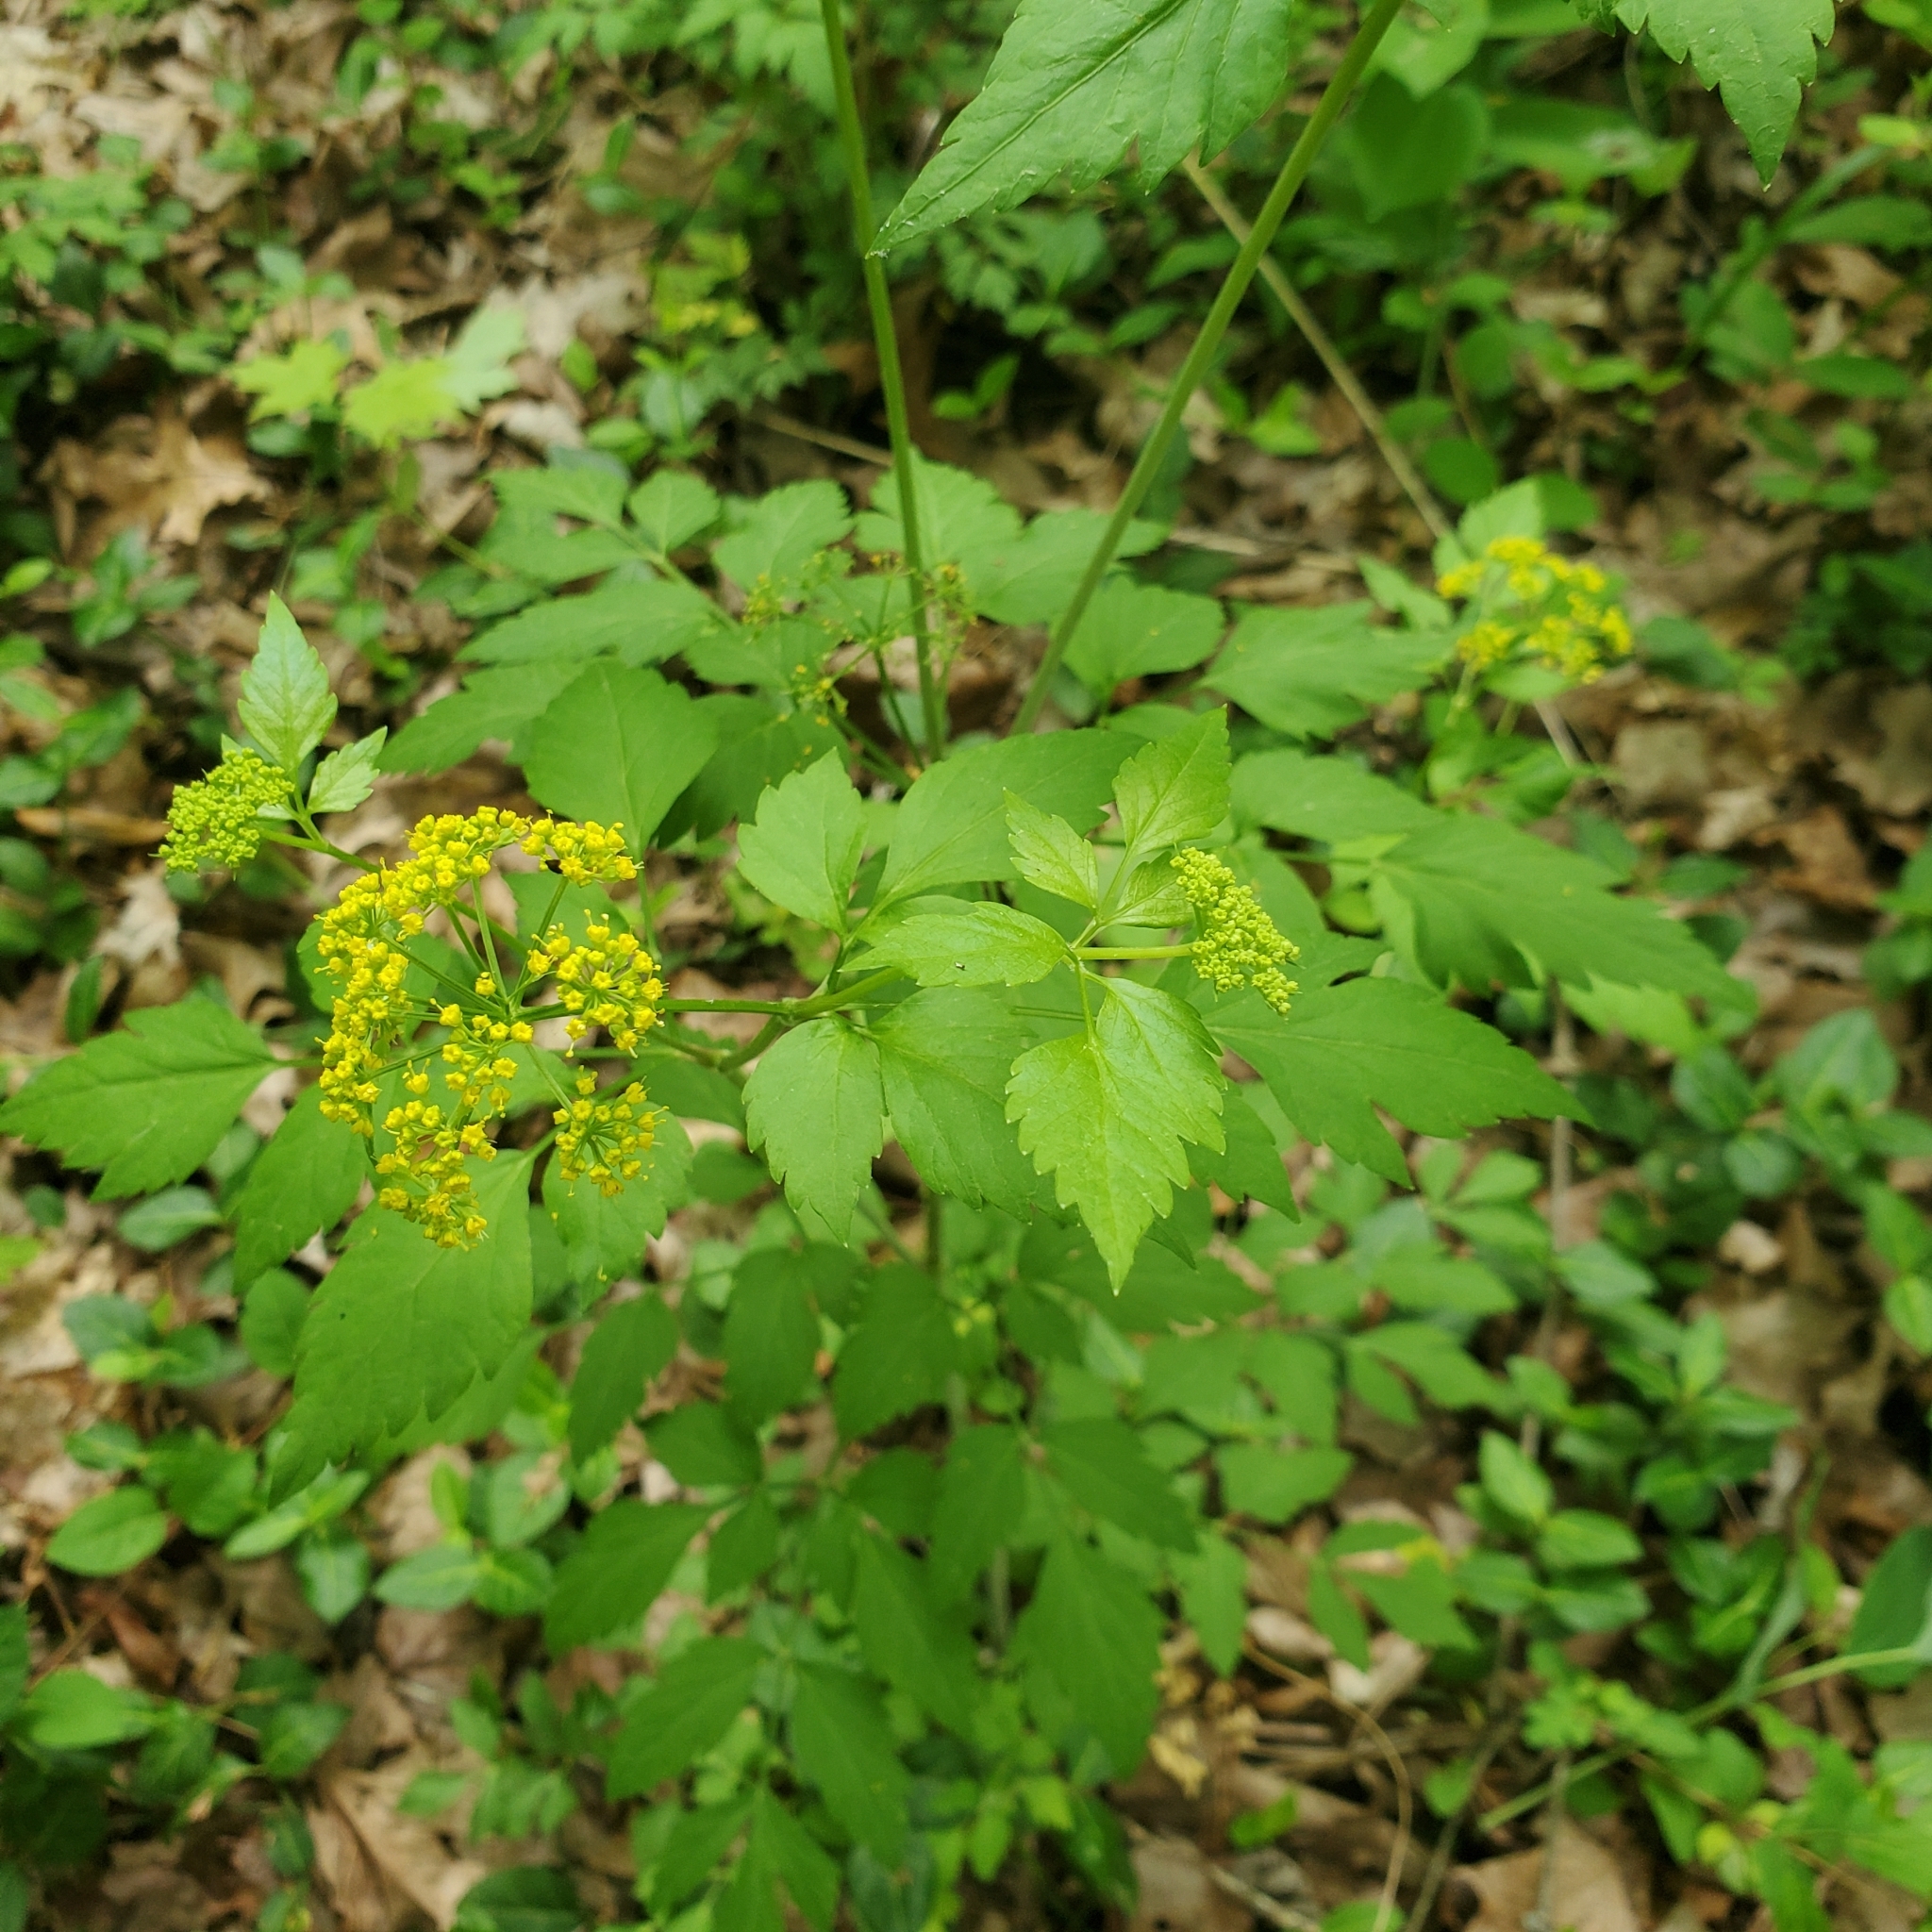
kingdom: Plantae
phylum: Tracheophyta
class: Magnoliopsida
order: Apiales
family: Apiaceae
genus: Zizia
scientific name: Zizia aurea
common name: Golden alexanders
